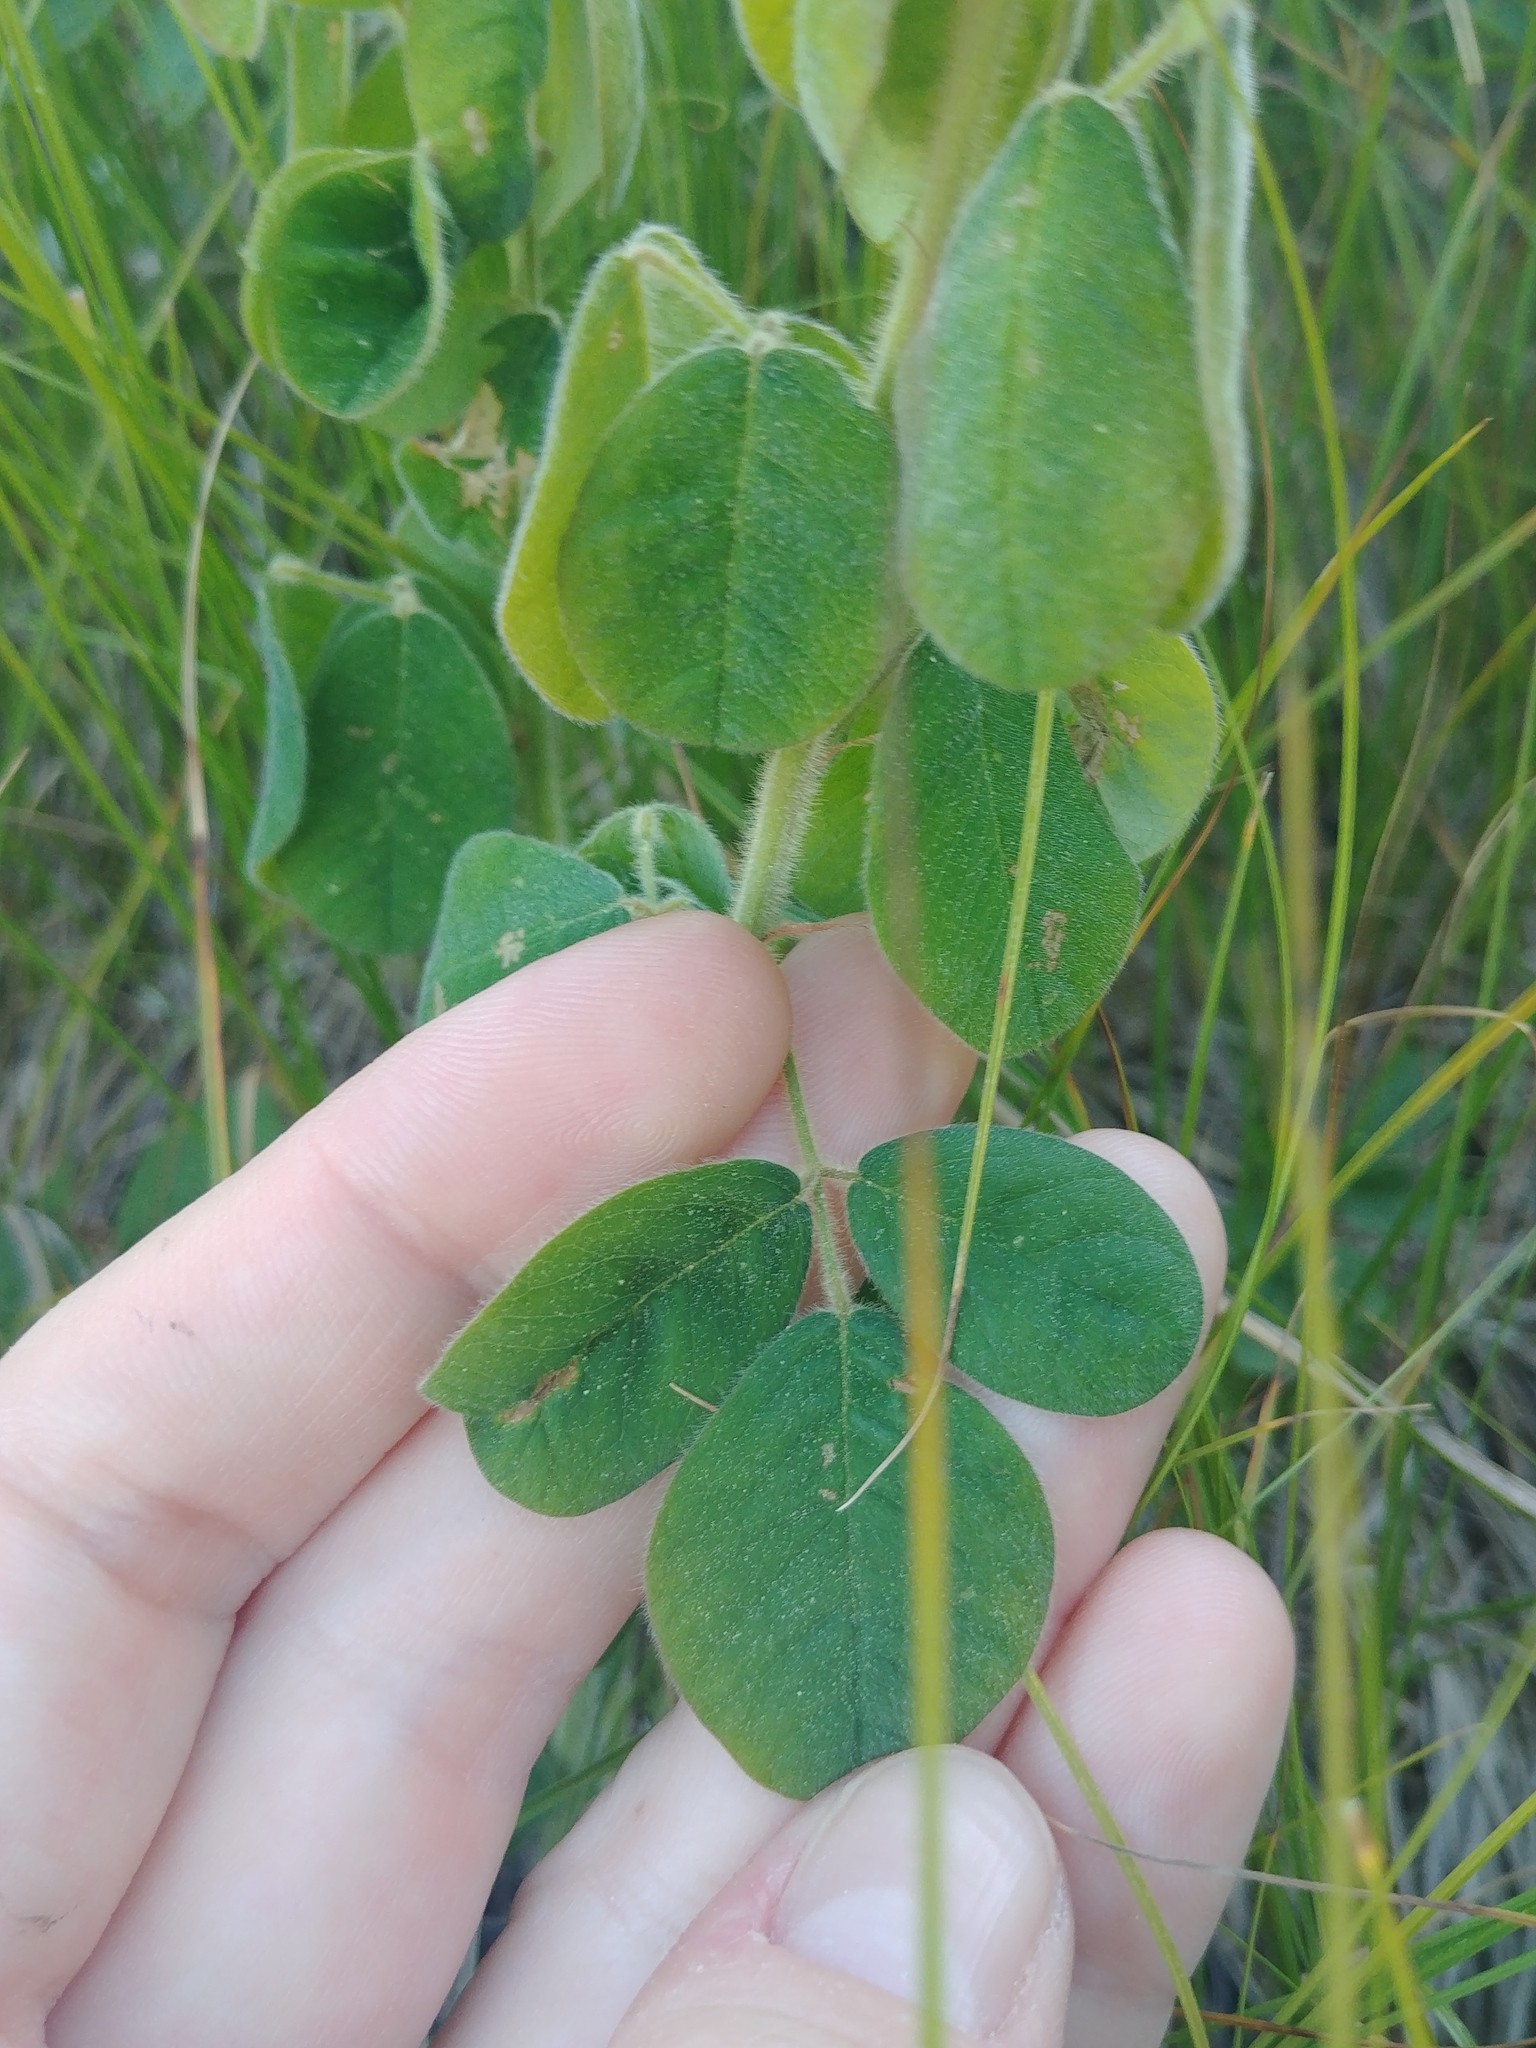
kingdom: Plantae
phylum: Tracheophyta
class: Magnoliopsida
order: Fabales
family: Fabaceae
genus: Lespedeza
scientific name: Lespedeza hirta
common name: Hairy lespedeza
